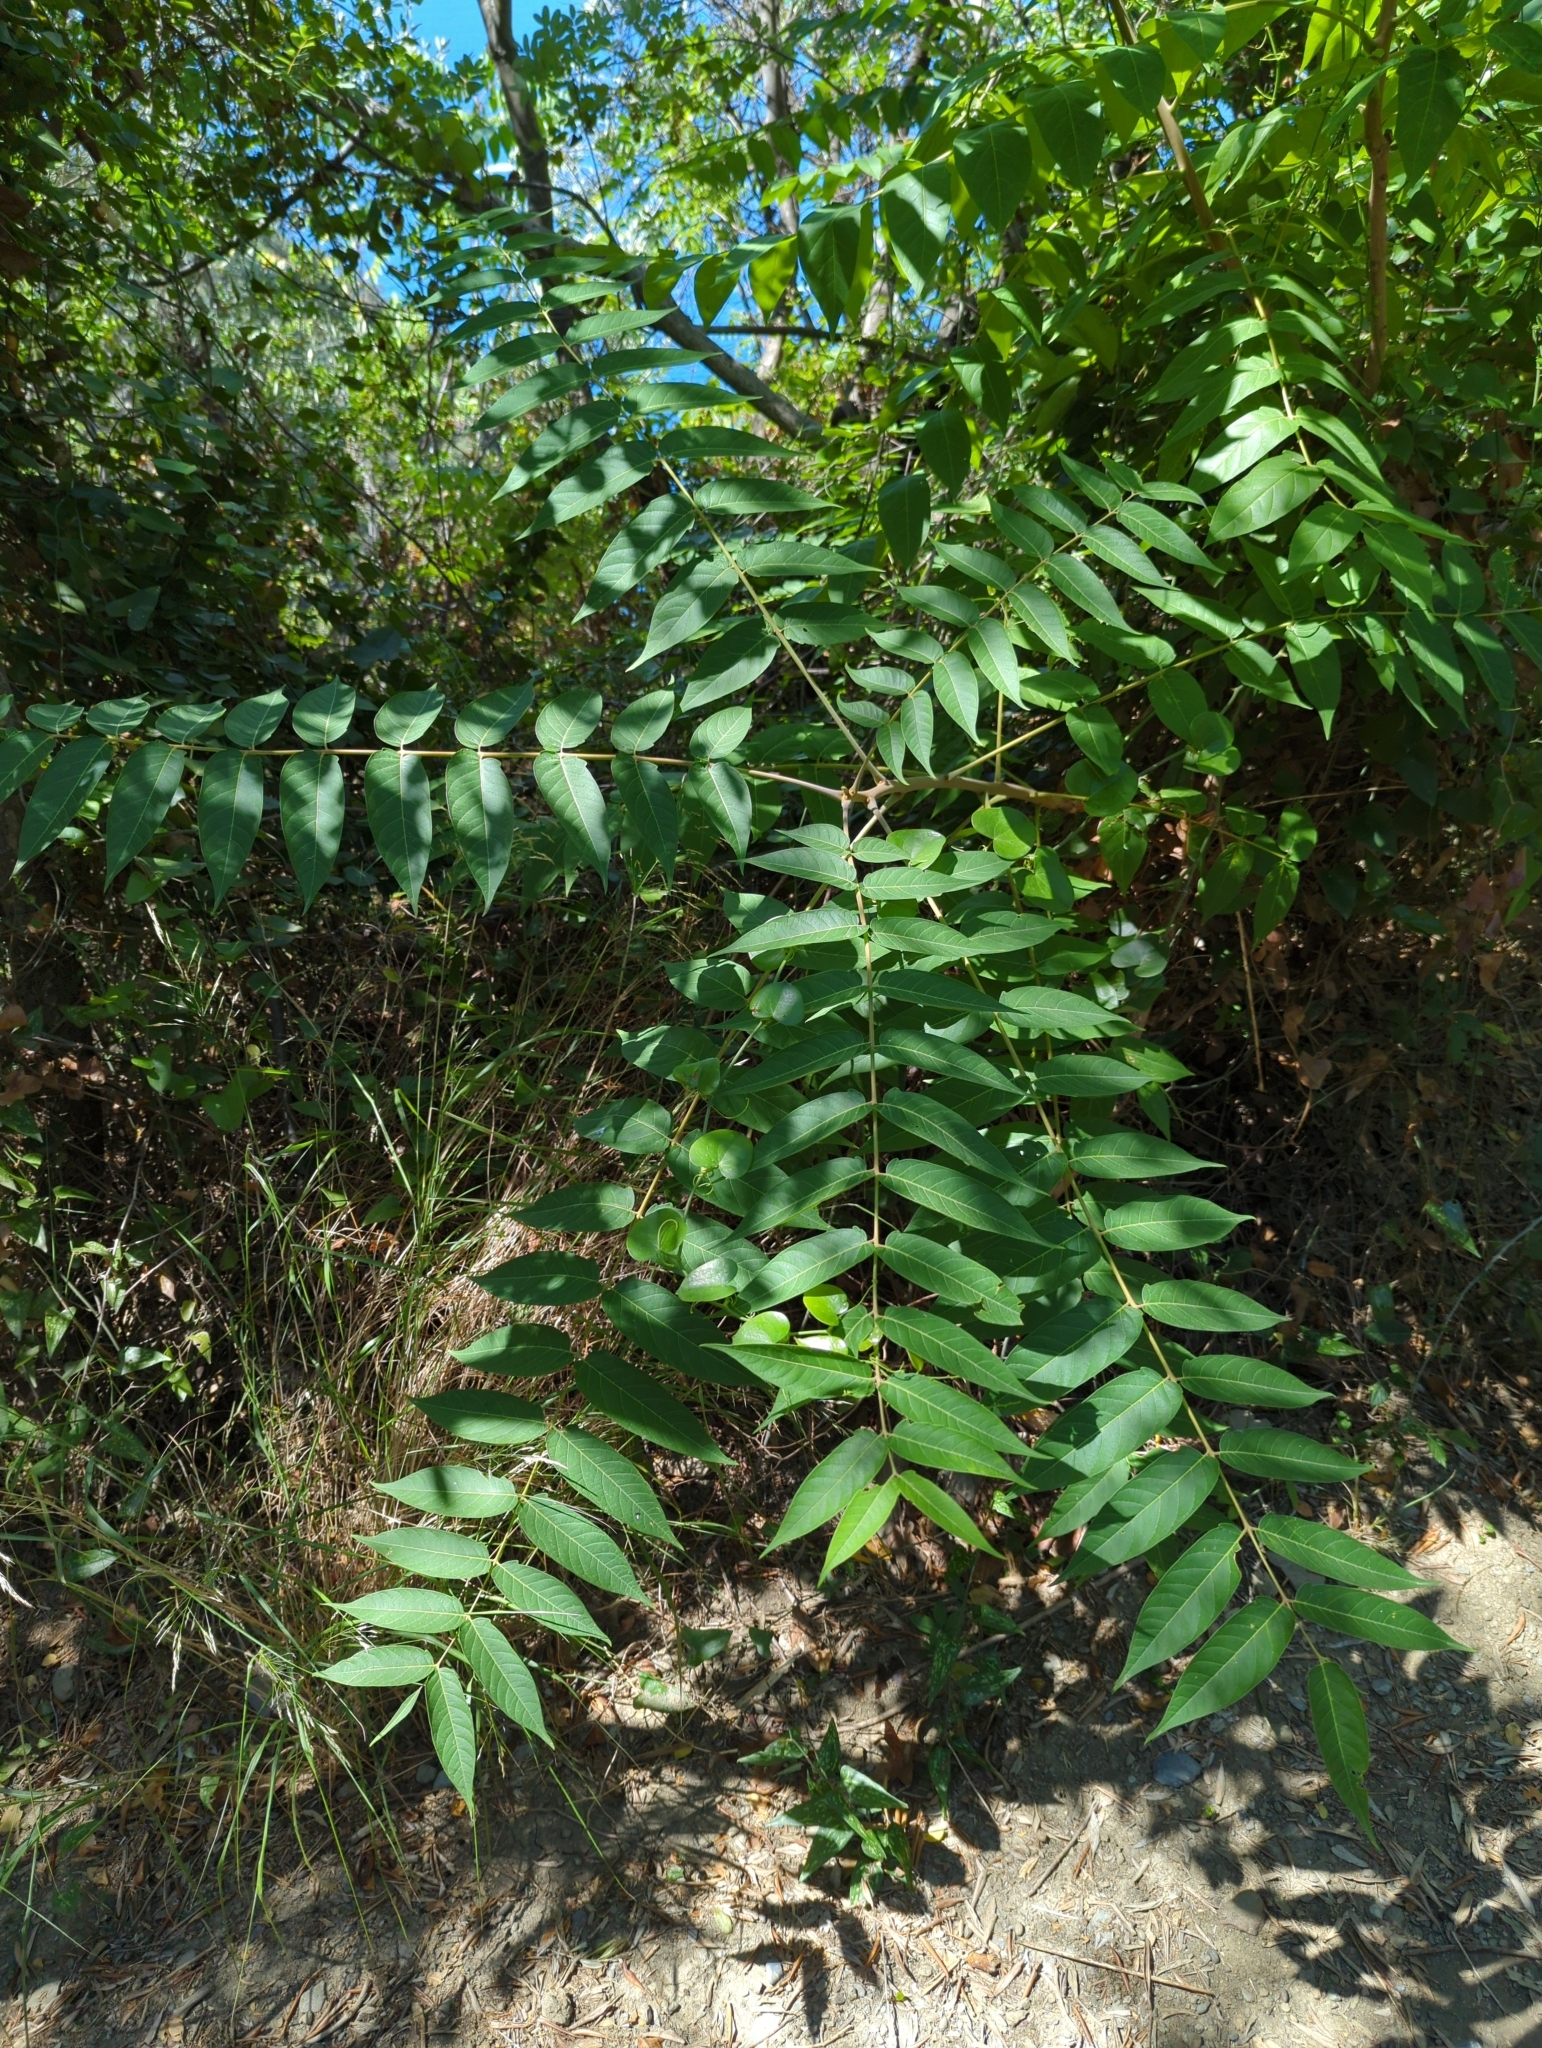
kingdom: Plantae
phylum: Tracheophyta
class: Magnoliopsida
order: Sapindales
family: Simaroubaceae
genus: Ailanthus
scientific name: Ailanthus altissima
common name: Tree-of-heaven
